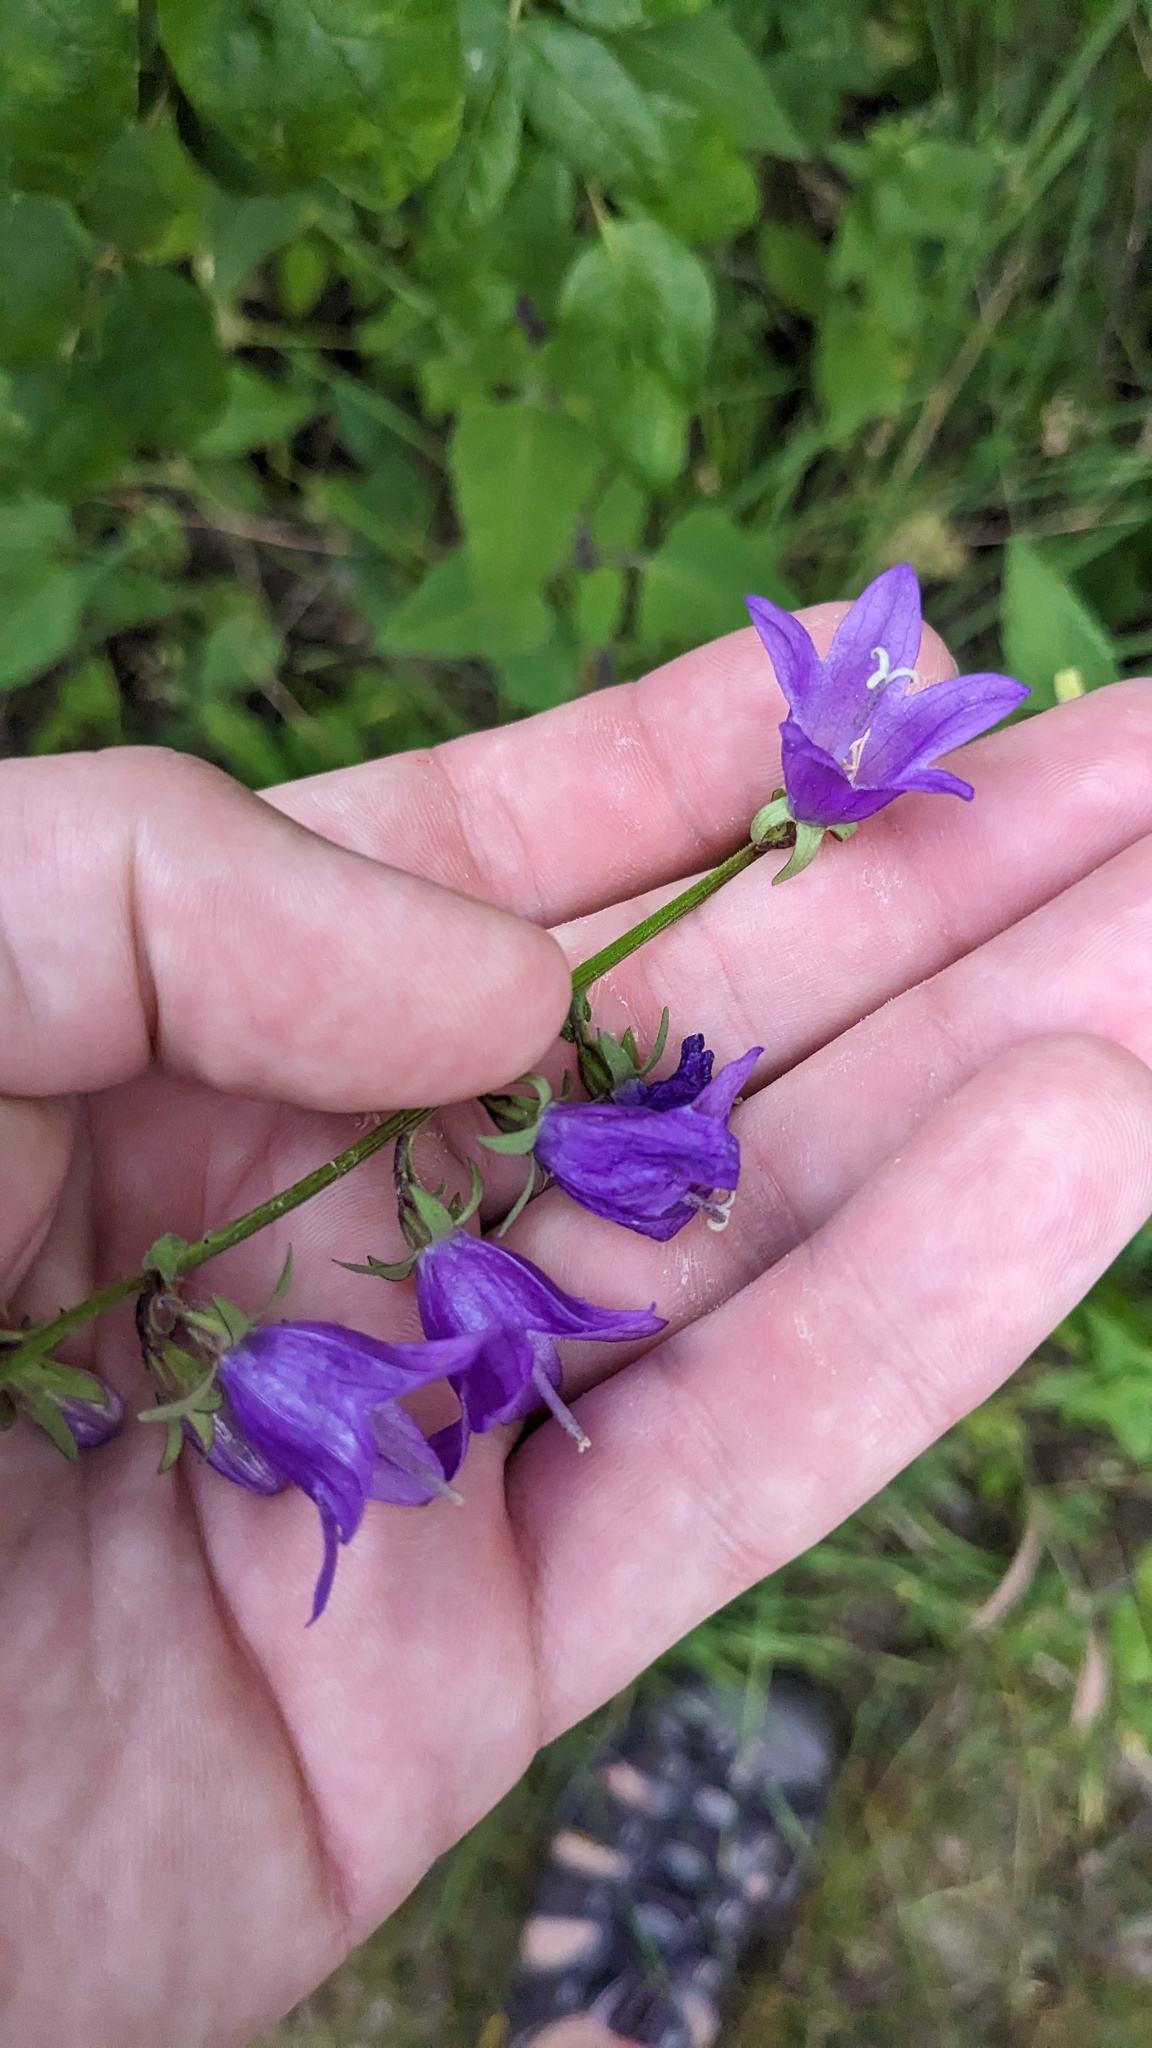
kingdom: Plantae
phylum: Tracheophyta
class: Magnoliopsida
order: Asterales
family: Campanulaceae
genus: Campanula
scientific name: Campanula rapunculoides
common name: Creeping bellflower
